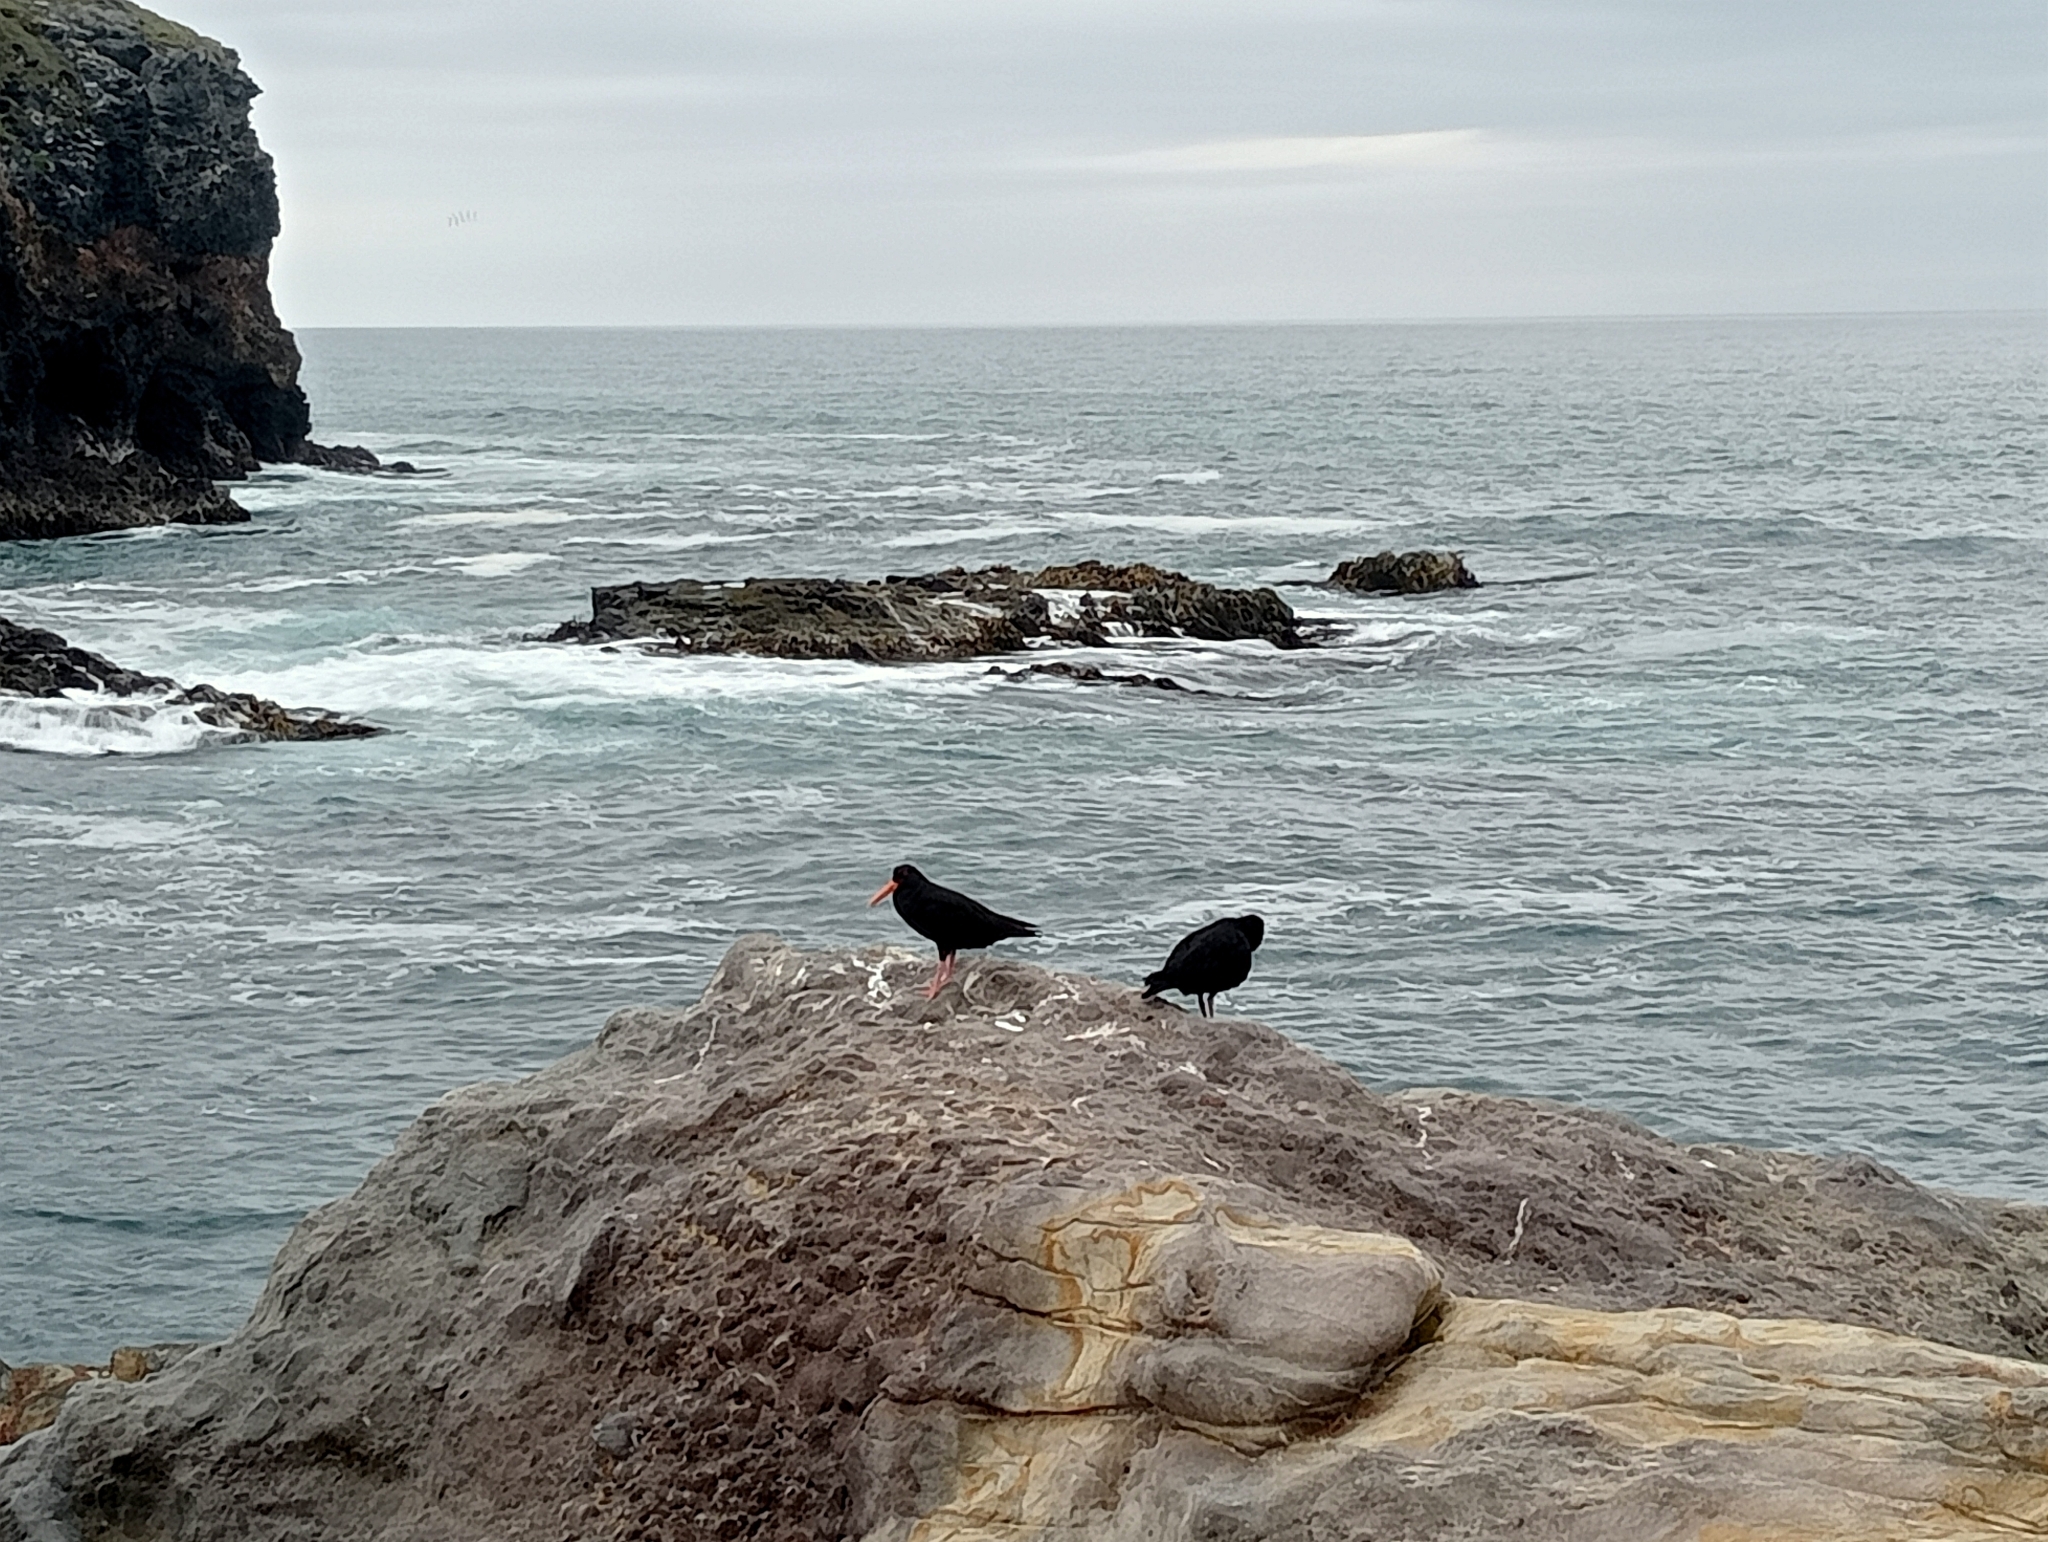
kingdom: Animalia
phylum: Chordata
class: Aves
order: Charadriiformes
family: Haematopodidae
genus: Haematopus
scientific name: Haematopus unicolor
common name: Variable oystercatcher
